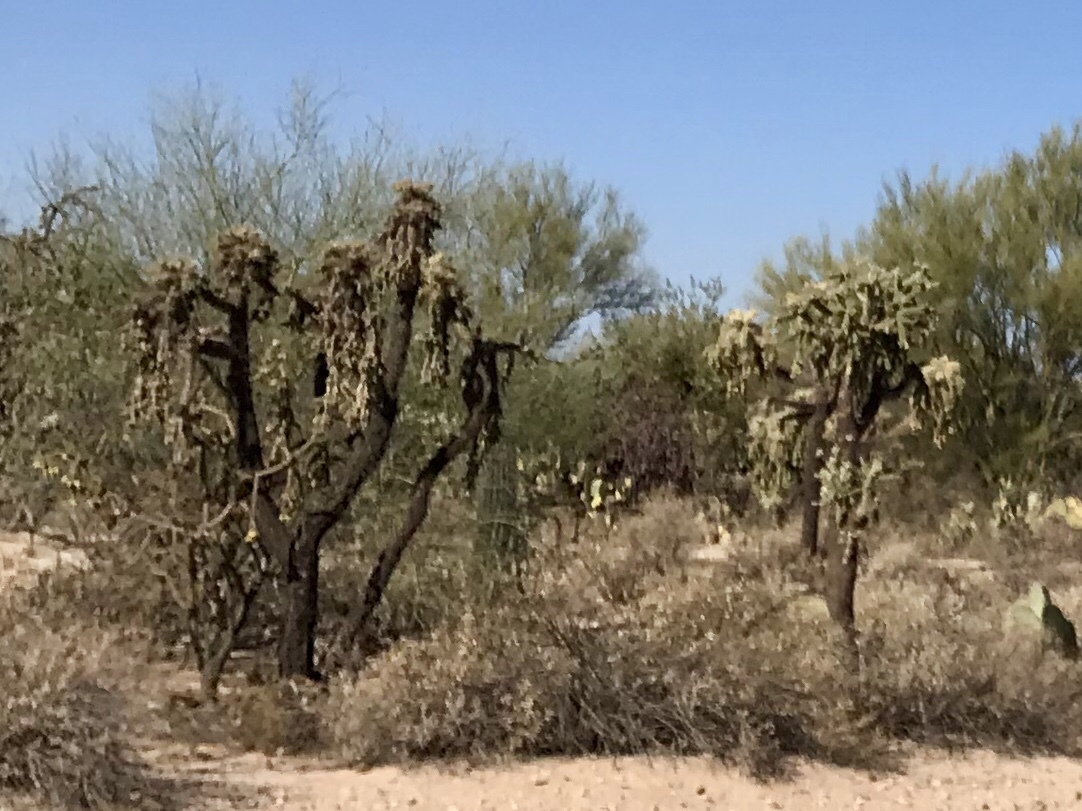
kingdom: Plantae
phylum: Tracheophyta
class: Magnoliopsida
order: Caryophyllales
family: Cactaceae
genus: Cylindropuntia
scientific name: Cylindropuntia fulgida
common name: Jumping cholla
